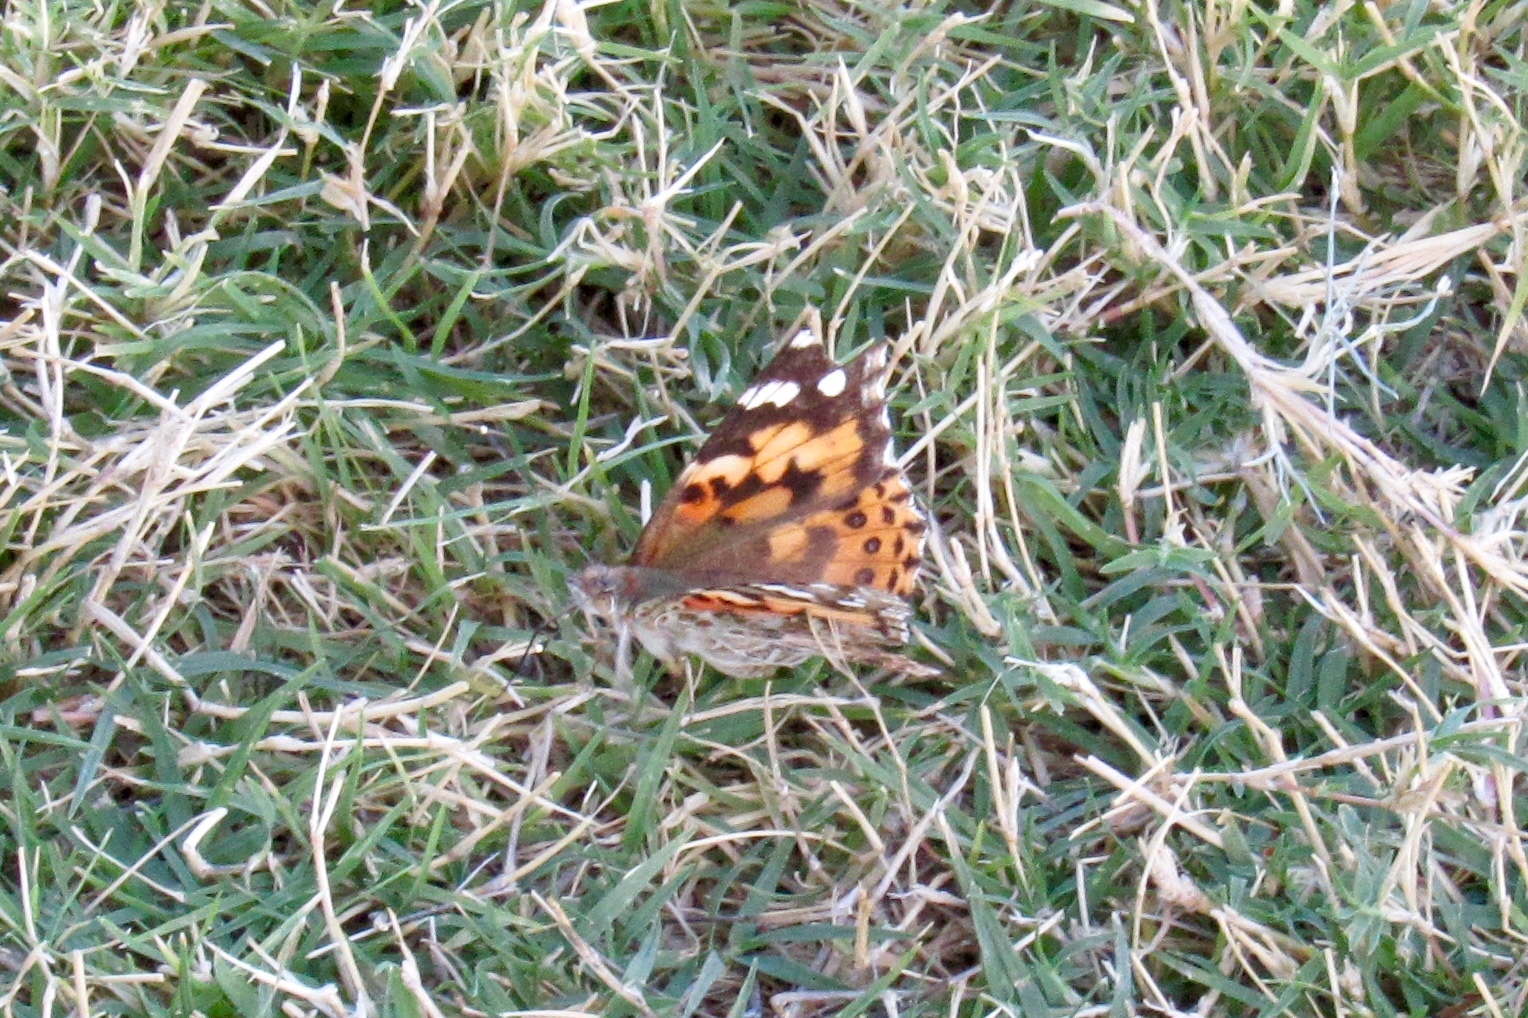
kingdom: Animalia
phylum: Arthropoda
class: Insecta
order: Lepidoptera
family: Nymphalidae
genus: Vanessa
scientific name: Vanessa cardui
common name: Painted lady
